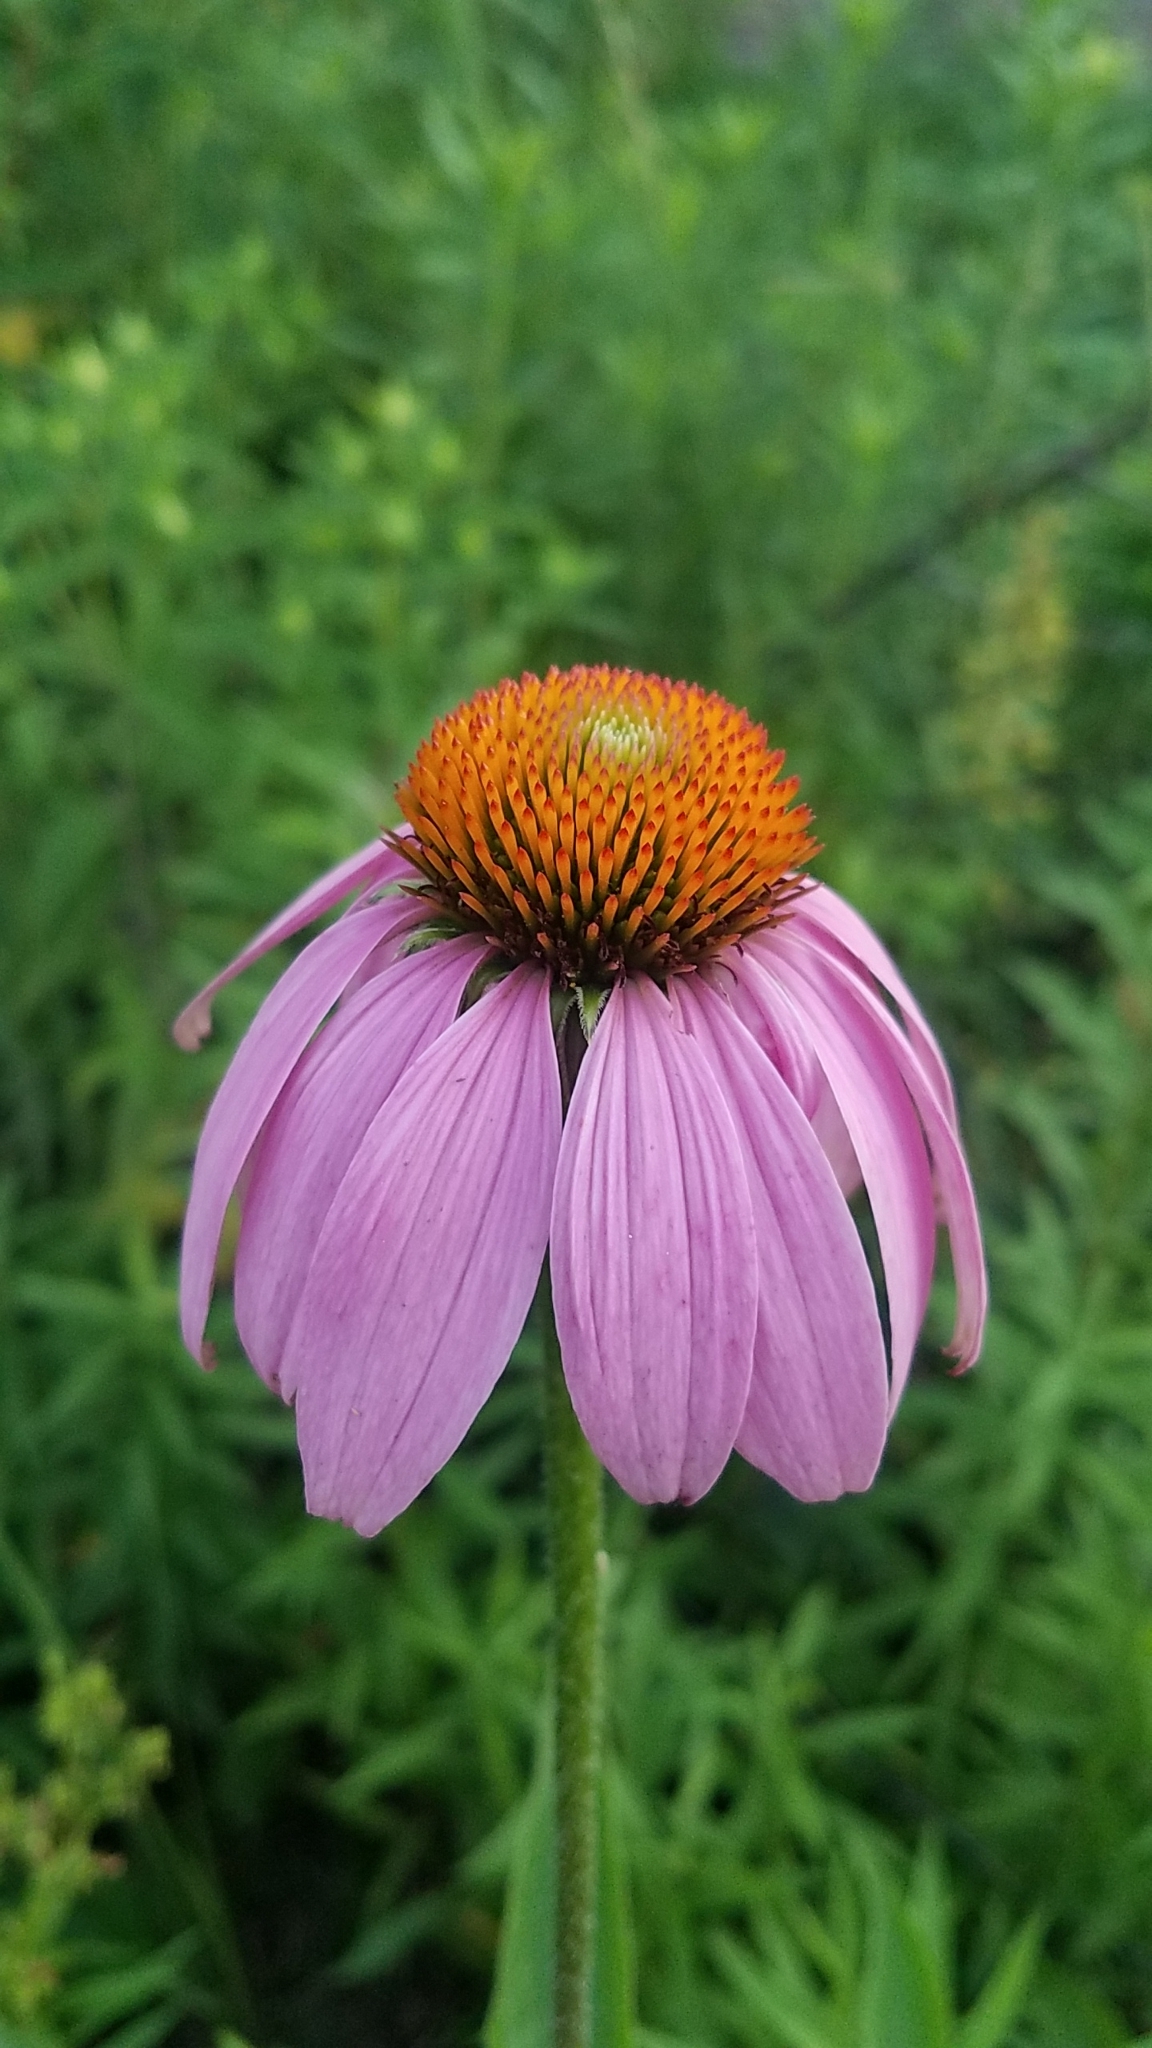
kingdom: Plantae
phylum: Tracheophyta
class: Magnoliopsida
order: Asterales
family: Asteraceae
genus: Echinacea
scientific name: Echinacea purpurea
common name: Broad-leaved purple coneflower
